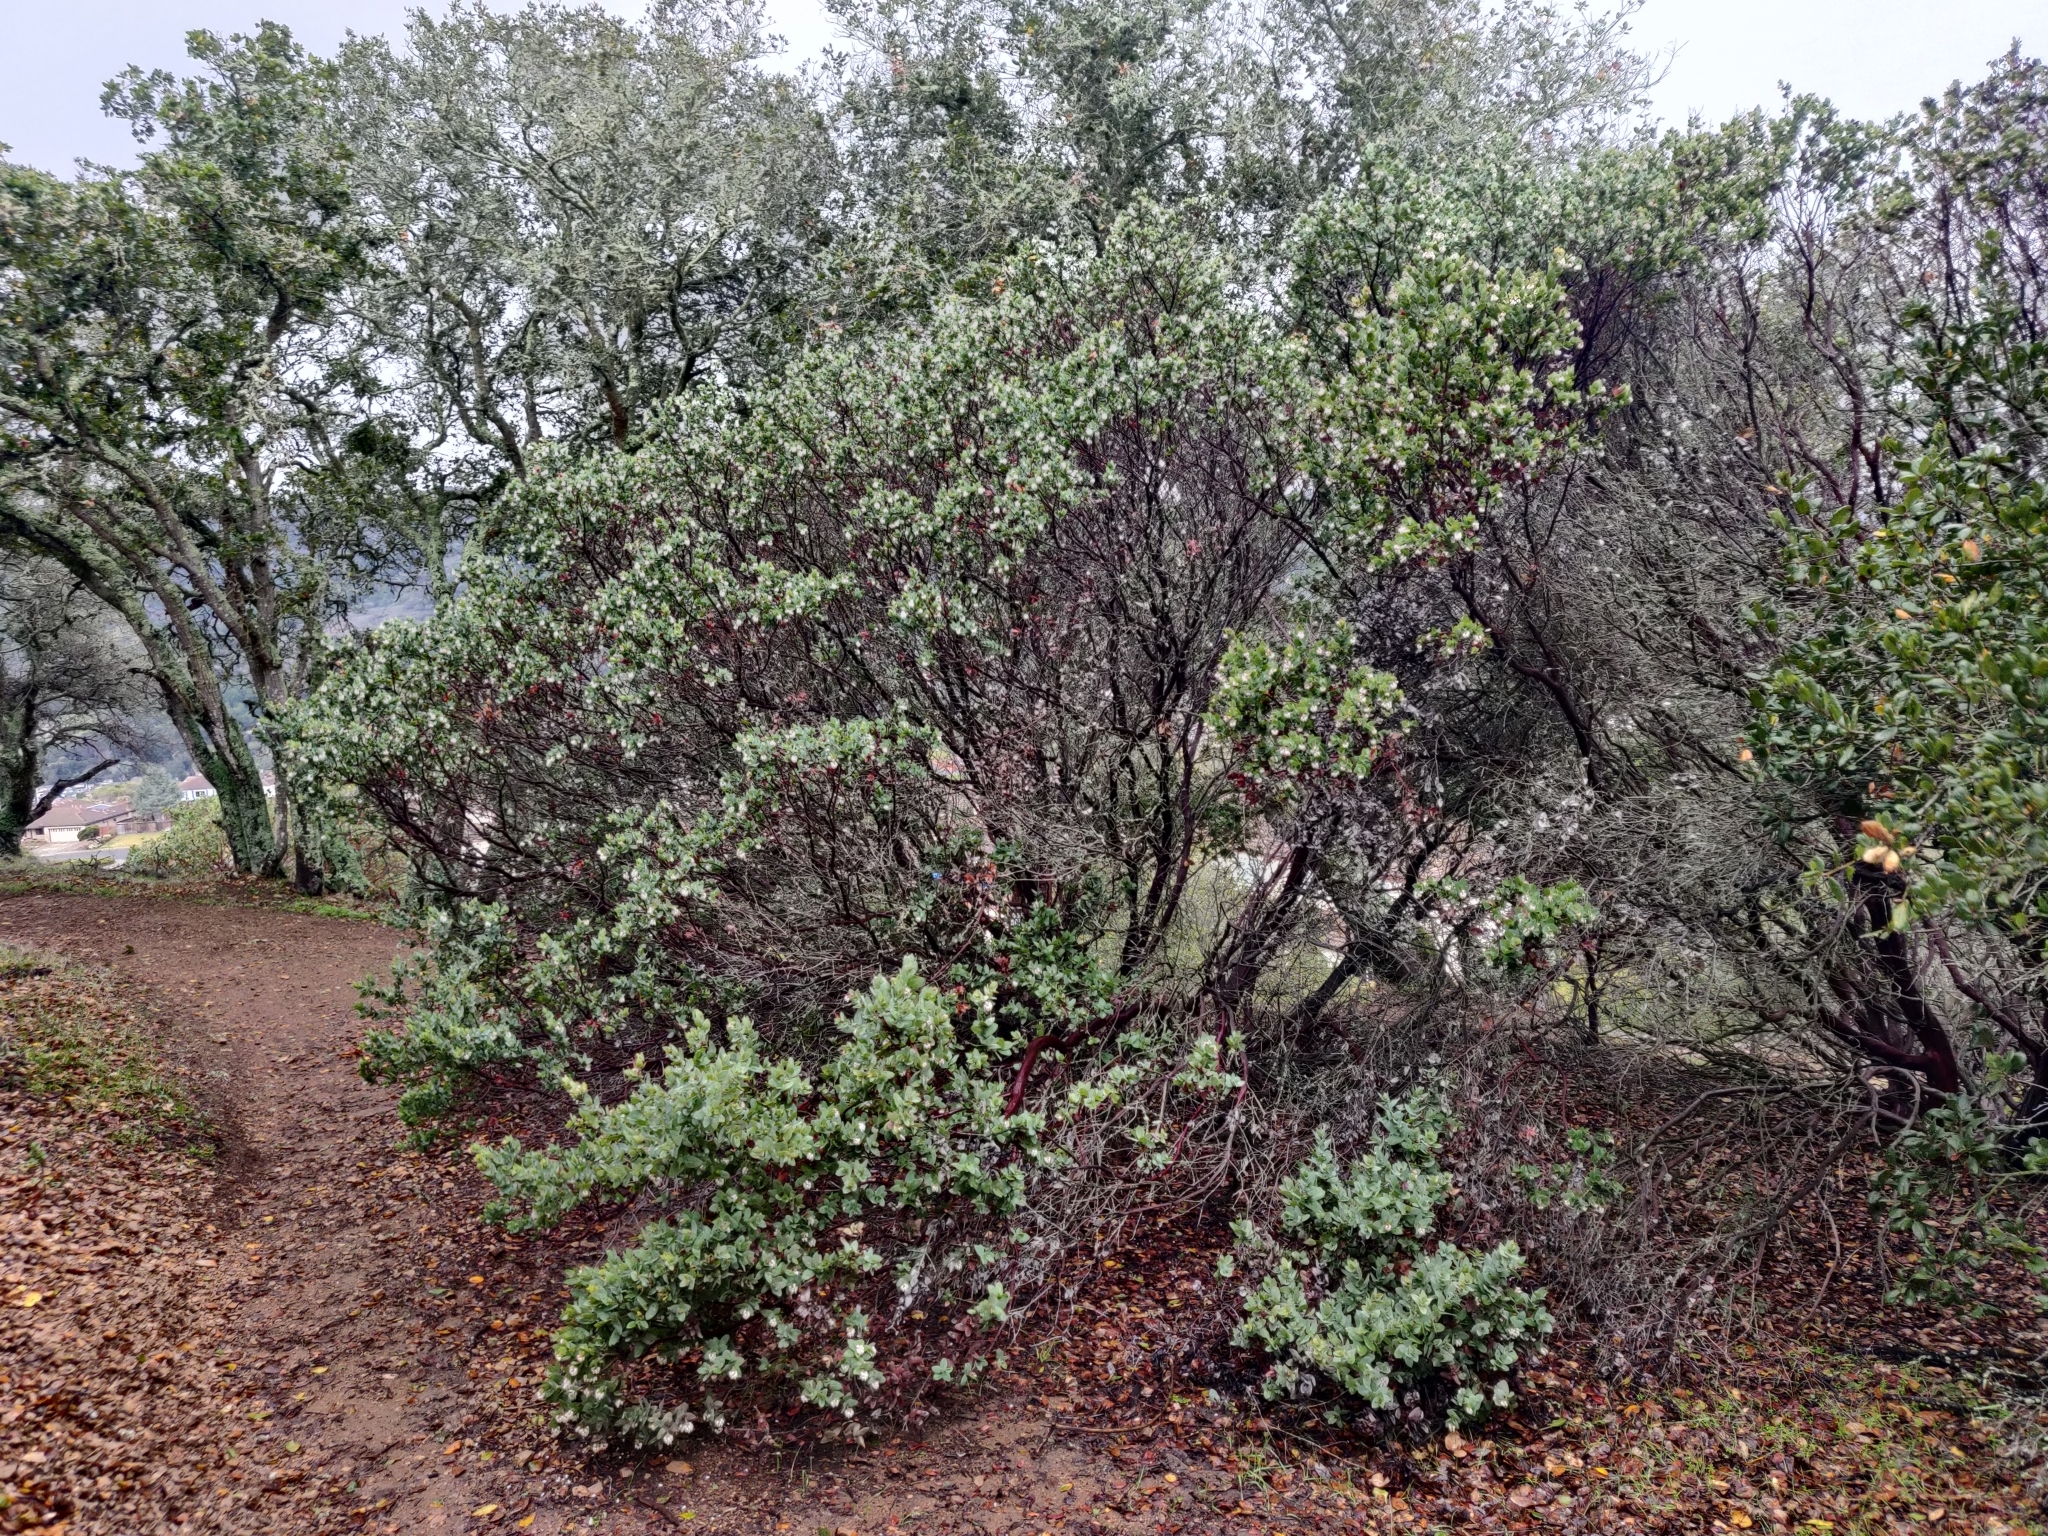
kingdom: Plantae
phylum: Tracheophyta
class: Magnoliopsida
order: Ericales
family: Ericaceae
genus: Arctostaphylos
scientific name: Arctostaphylos pallida
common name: Pallid manzanita
